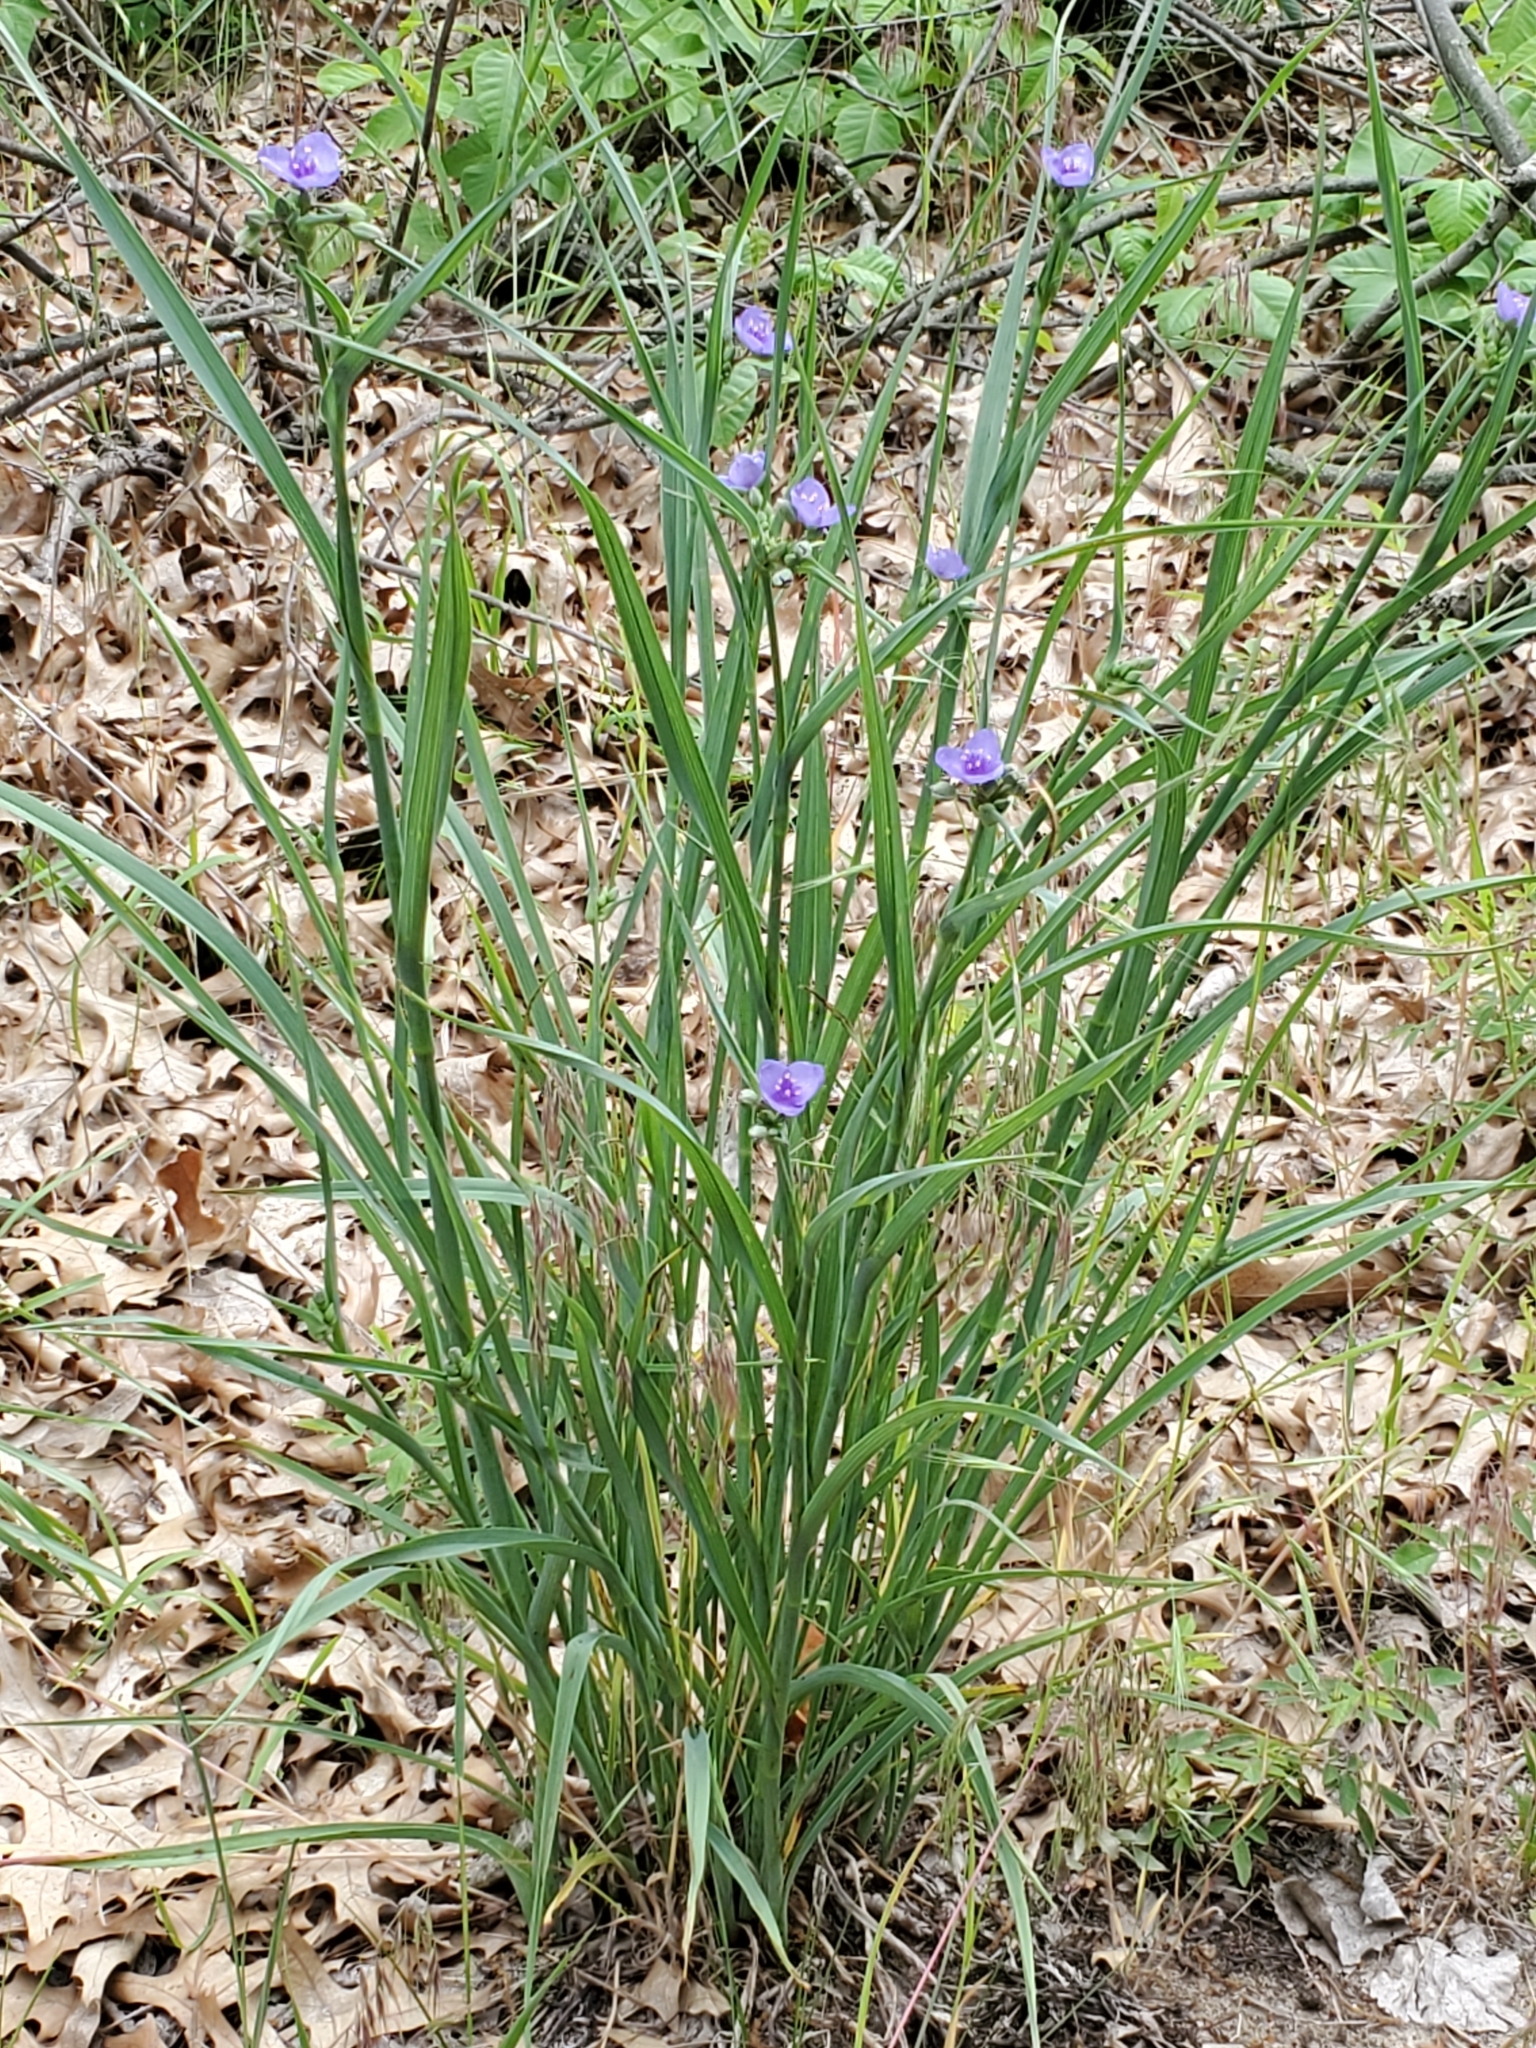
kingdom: Plantae
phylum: Tracheophyta
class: Liliopsida
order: Commelinales
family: Commelinaceae
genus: Tradescantia
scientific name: Tradescantia ohiensis
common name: Ohio spiderwort
